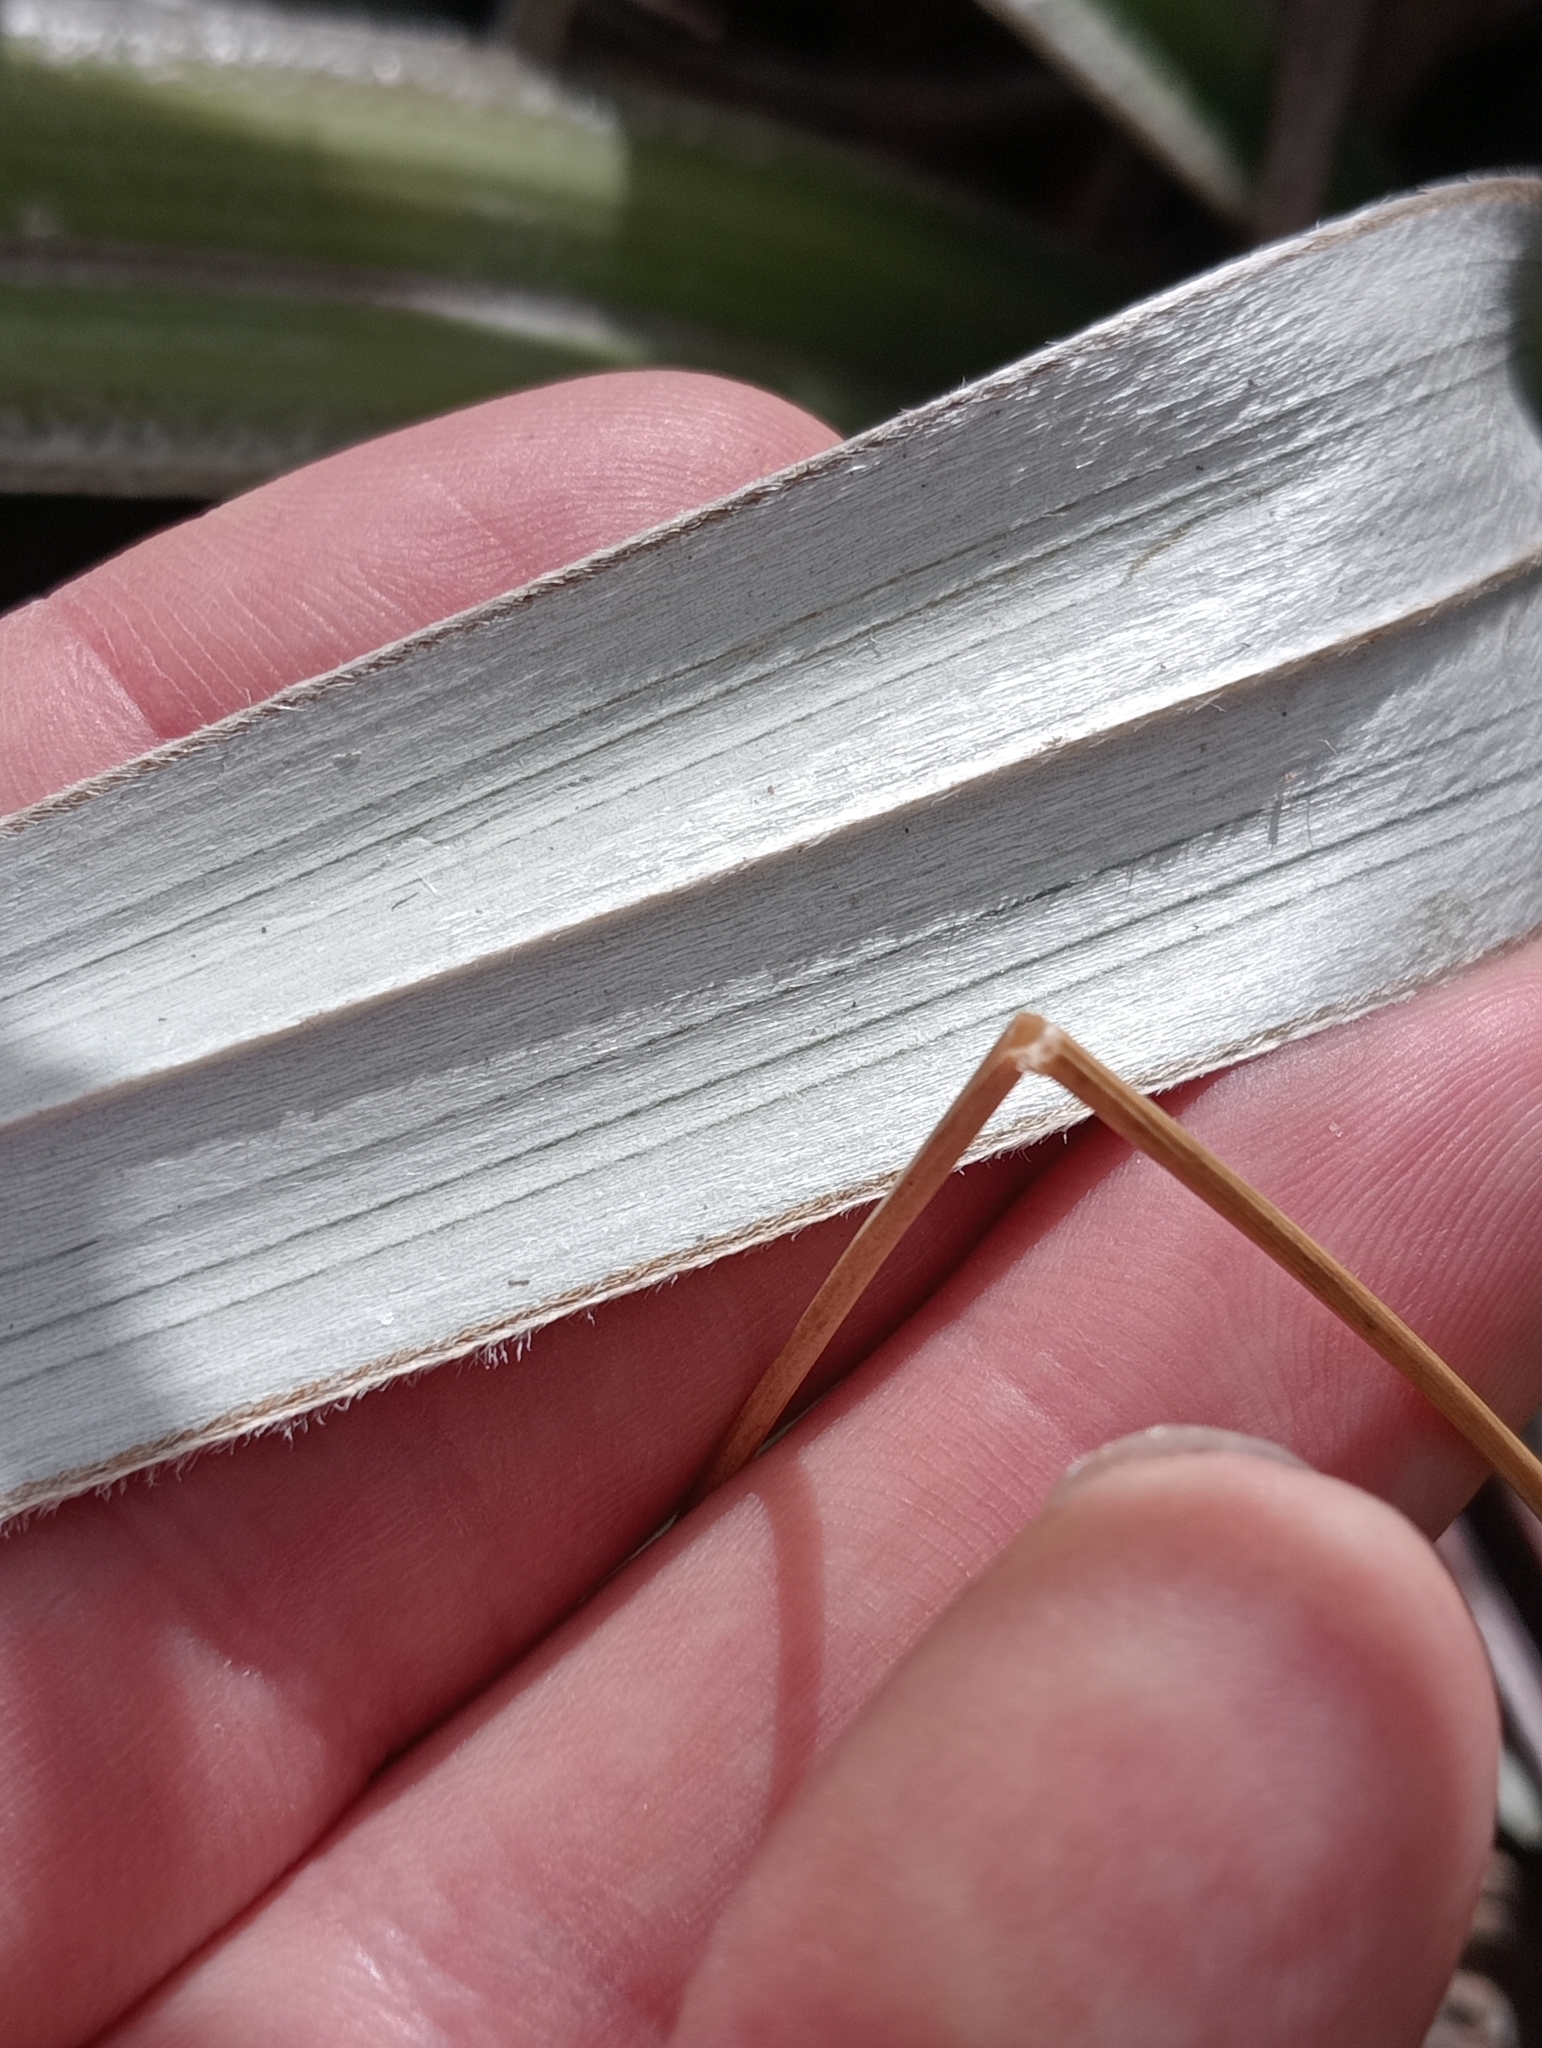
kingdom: Plantae
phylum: Tracheophyta
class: Liliopsida
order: Asparagales
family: Asteliaceae
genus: Astelia
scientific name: Astelia nervosa
